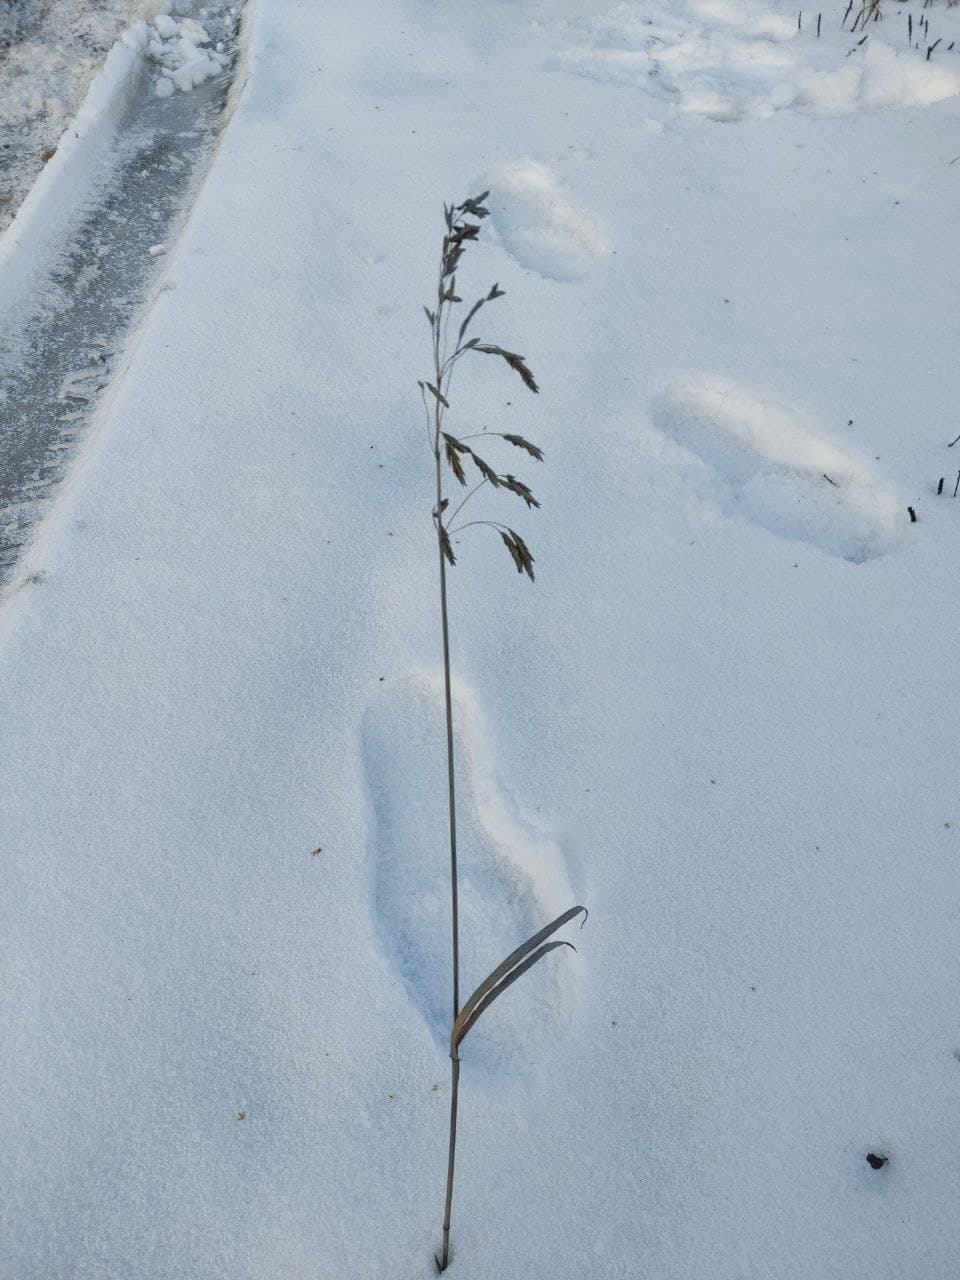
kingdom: Plantae
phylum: Tracheophyta
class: Liliopsida
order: Poales
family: Poaceae
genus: Bromus
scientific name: Bromus inermis
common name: Smooth brome
